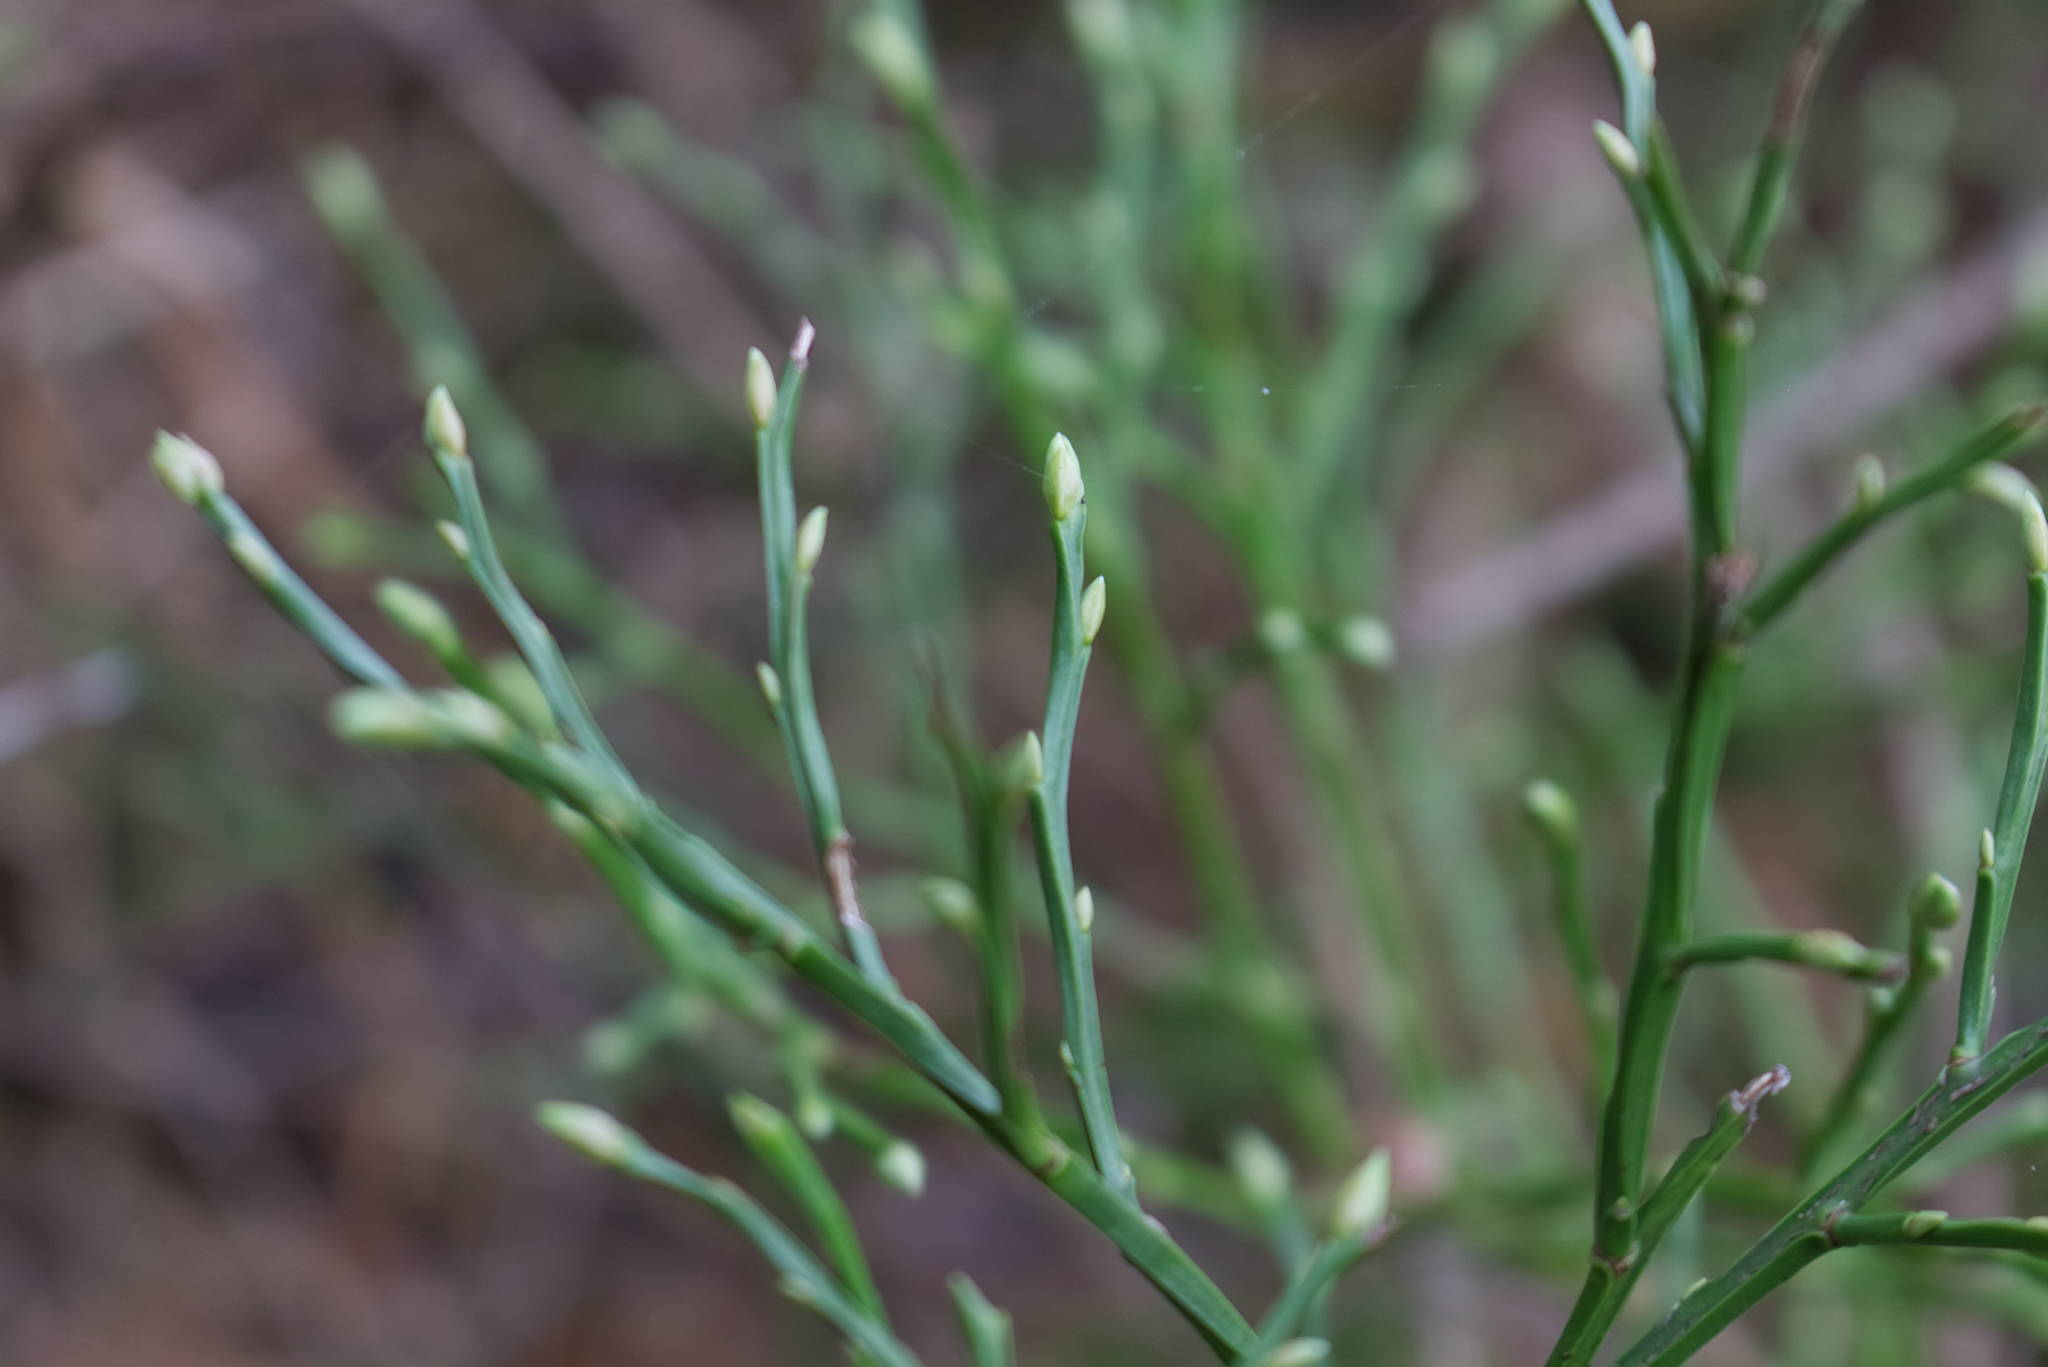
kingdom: Plantae
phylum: Tracheophyta
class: Magnoliopsida
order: Ericales
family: Ericaceae
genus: Vaccinium
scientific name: Vaccinium myrtillus
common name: Bilberry
